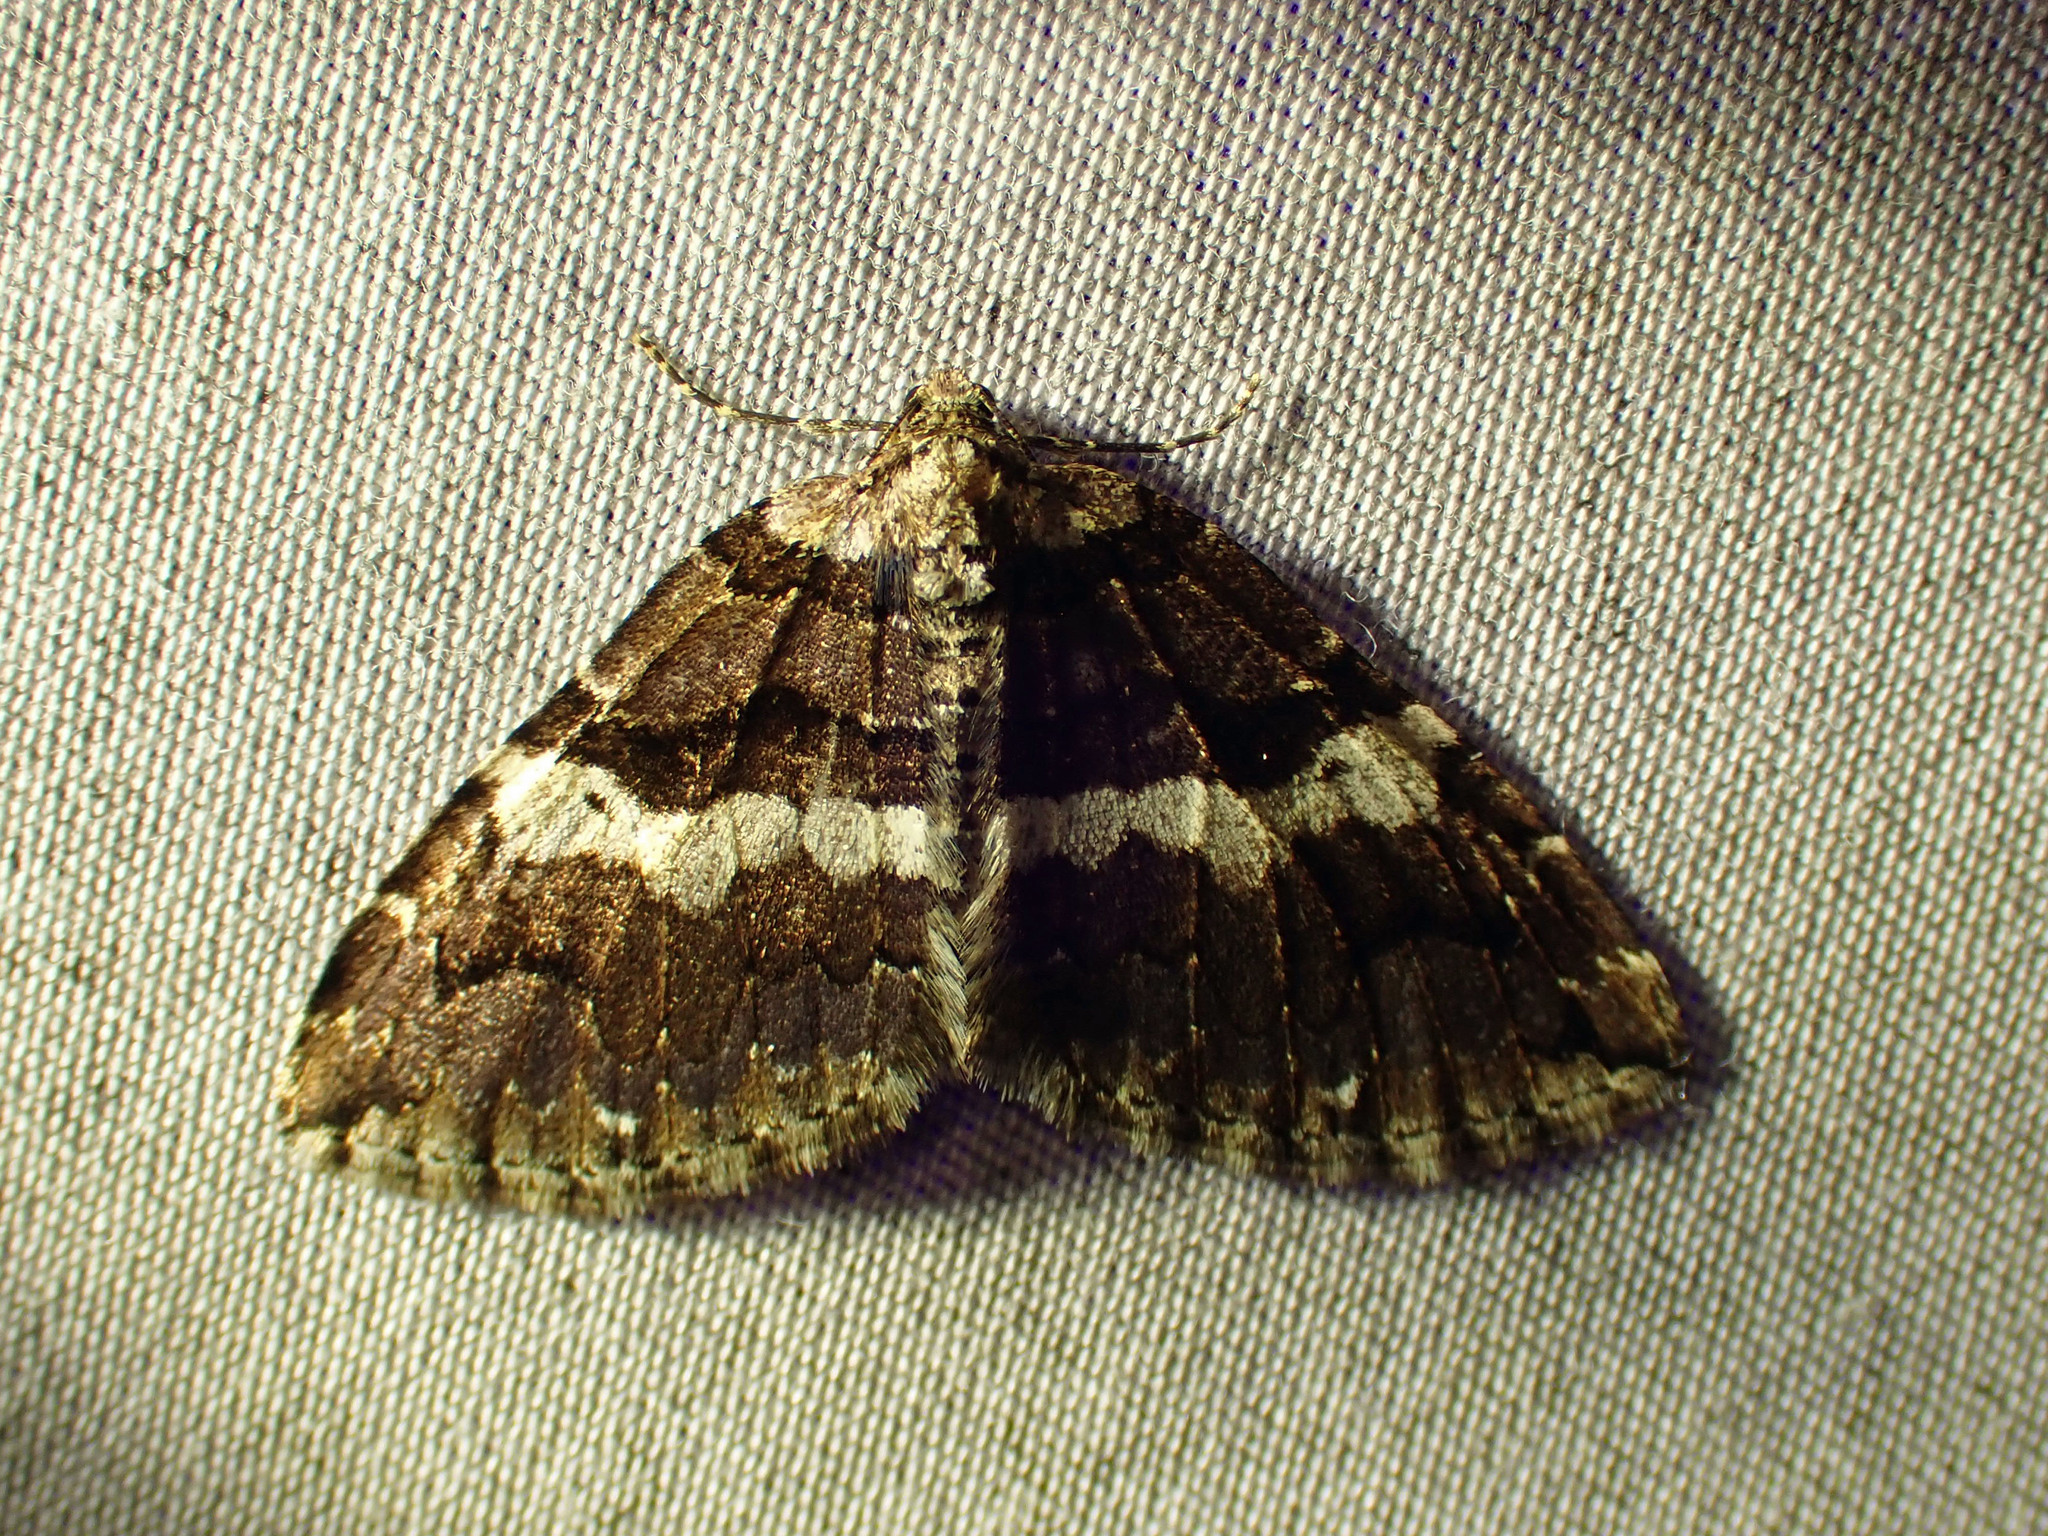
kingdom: Animalia
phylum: Arthropoda
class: Insecta
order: Lepidoptera
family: Geometridae
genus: Anticlea
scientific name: Anticlea vasiliata
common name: Variable carpet
